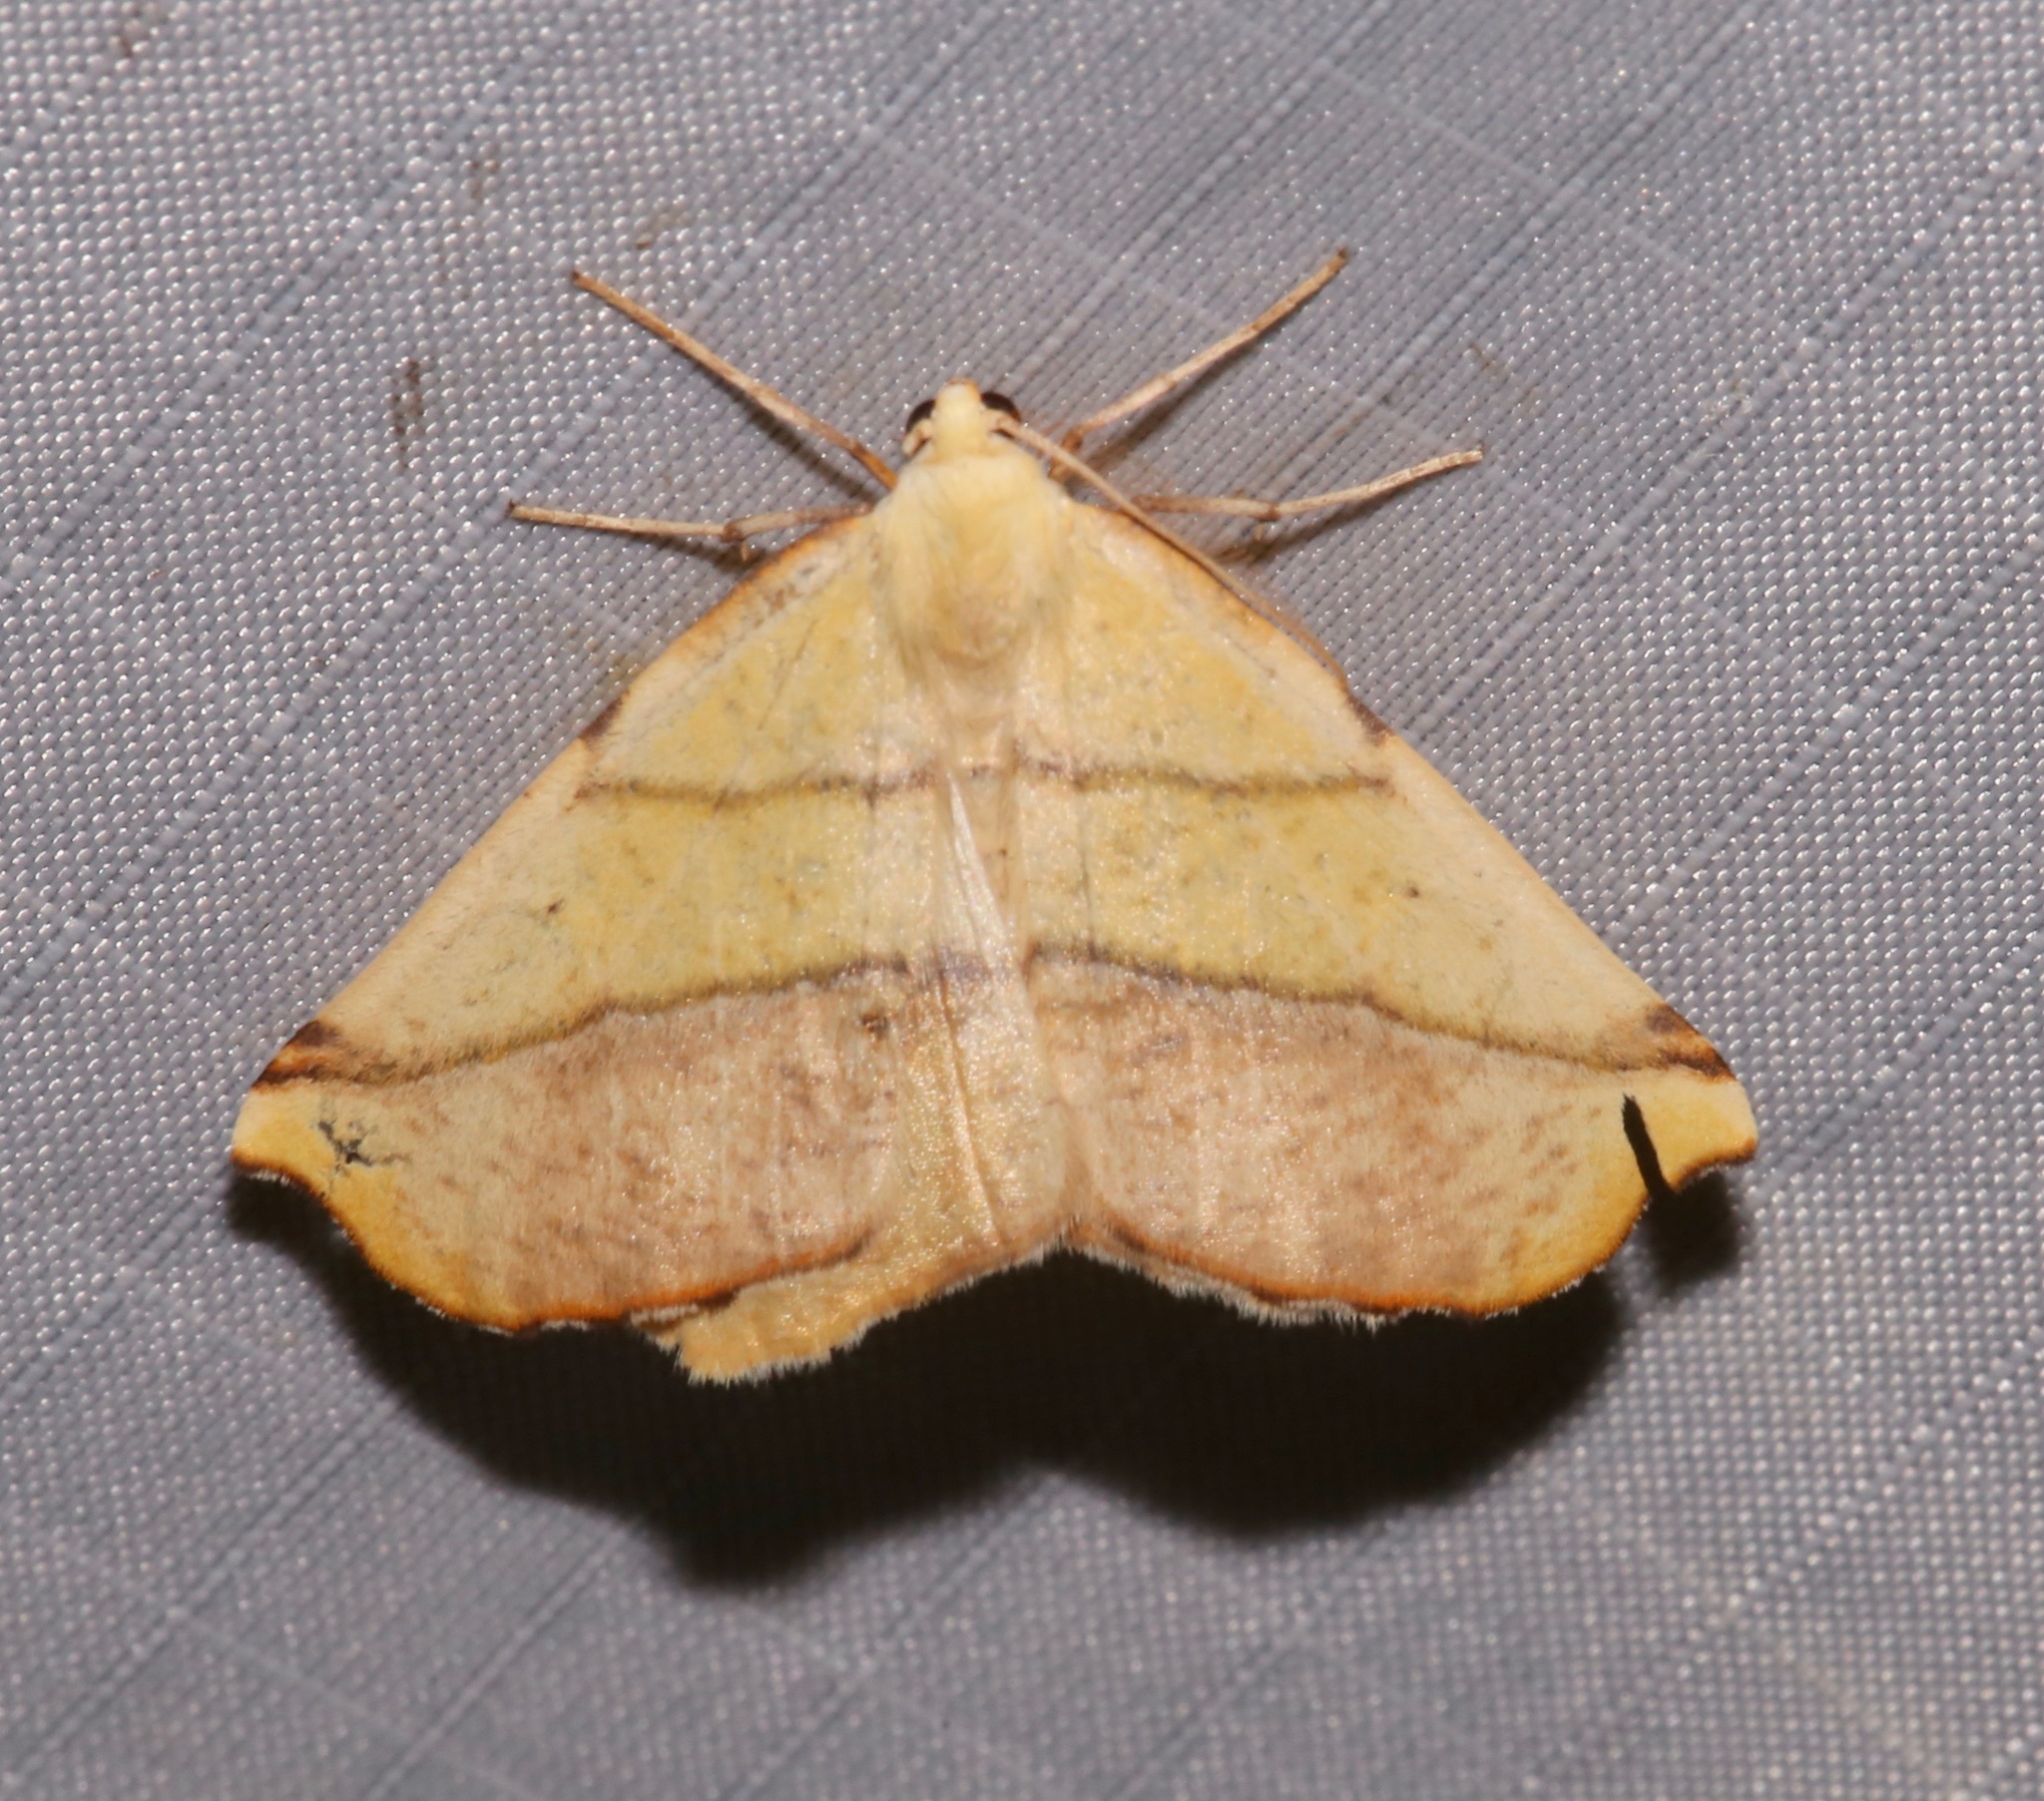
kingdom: Animalia
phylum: Arthropoda
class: Insecta
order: Lepidoptera
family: Geometridae
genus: Sicya
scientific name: Sicya macularia
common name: Sharp-lined yellow
